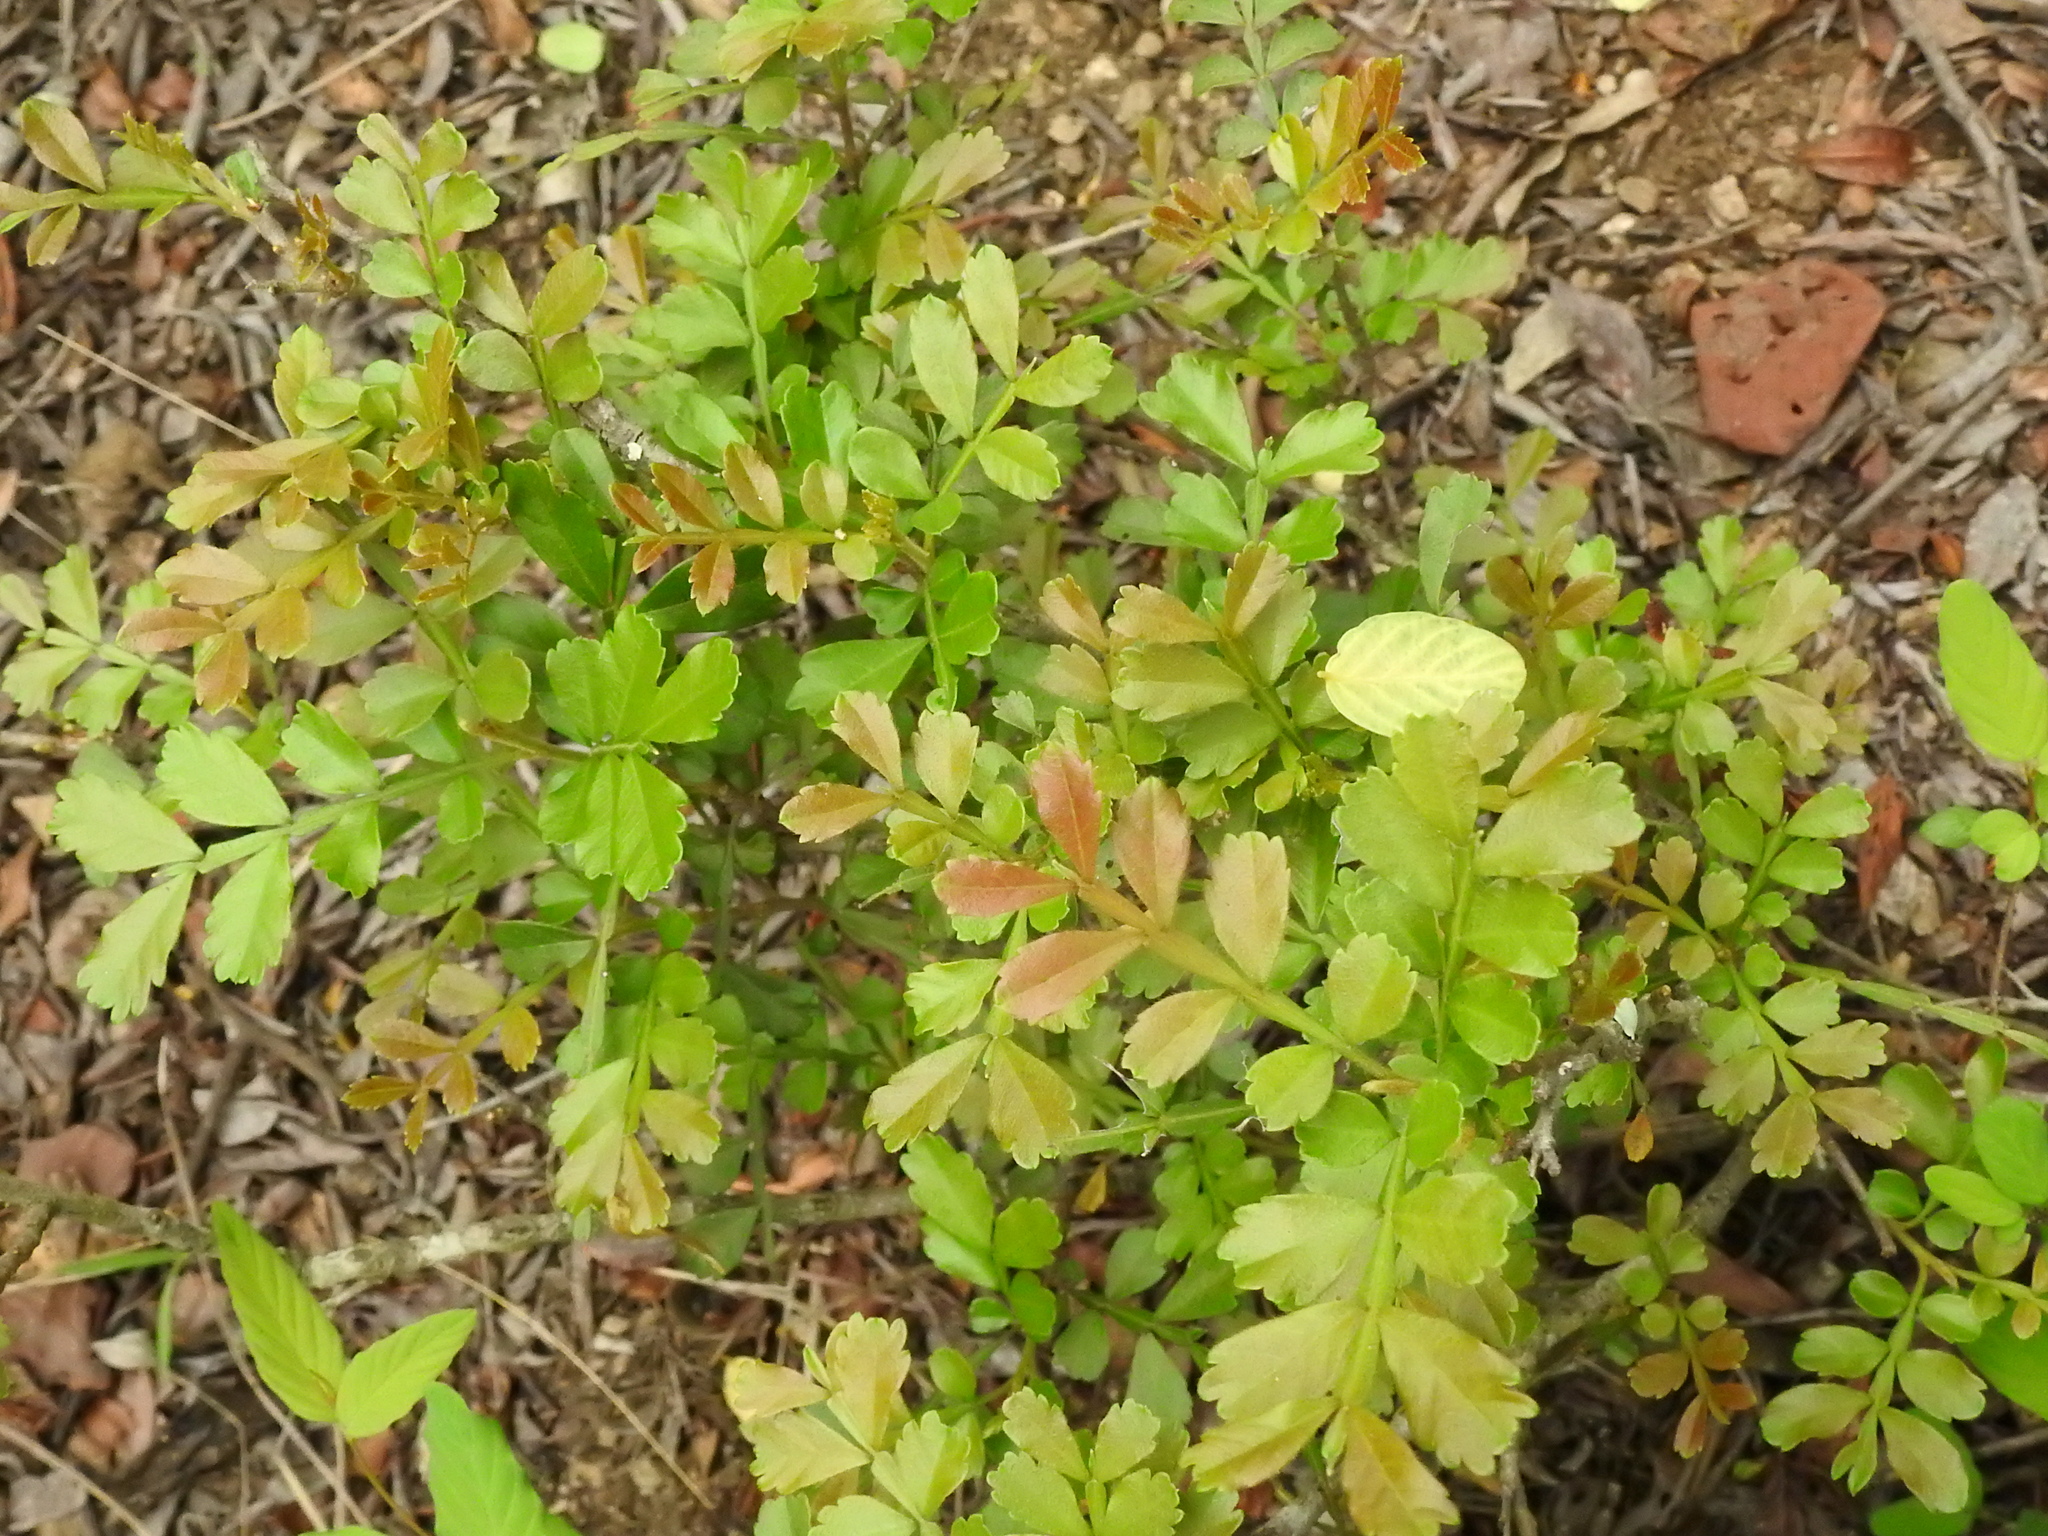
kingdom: Plantae
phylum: Tracheophyta
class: Magnoliopsida
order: Sapindales
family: Sapindaceae
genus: Hippobromus
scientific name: Hippobromus pauciflorus
